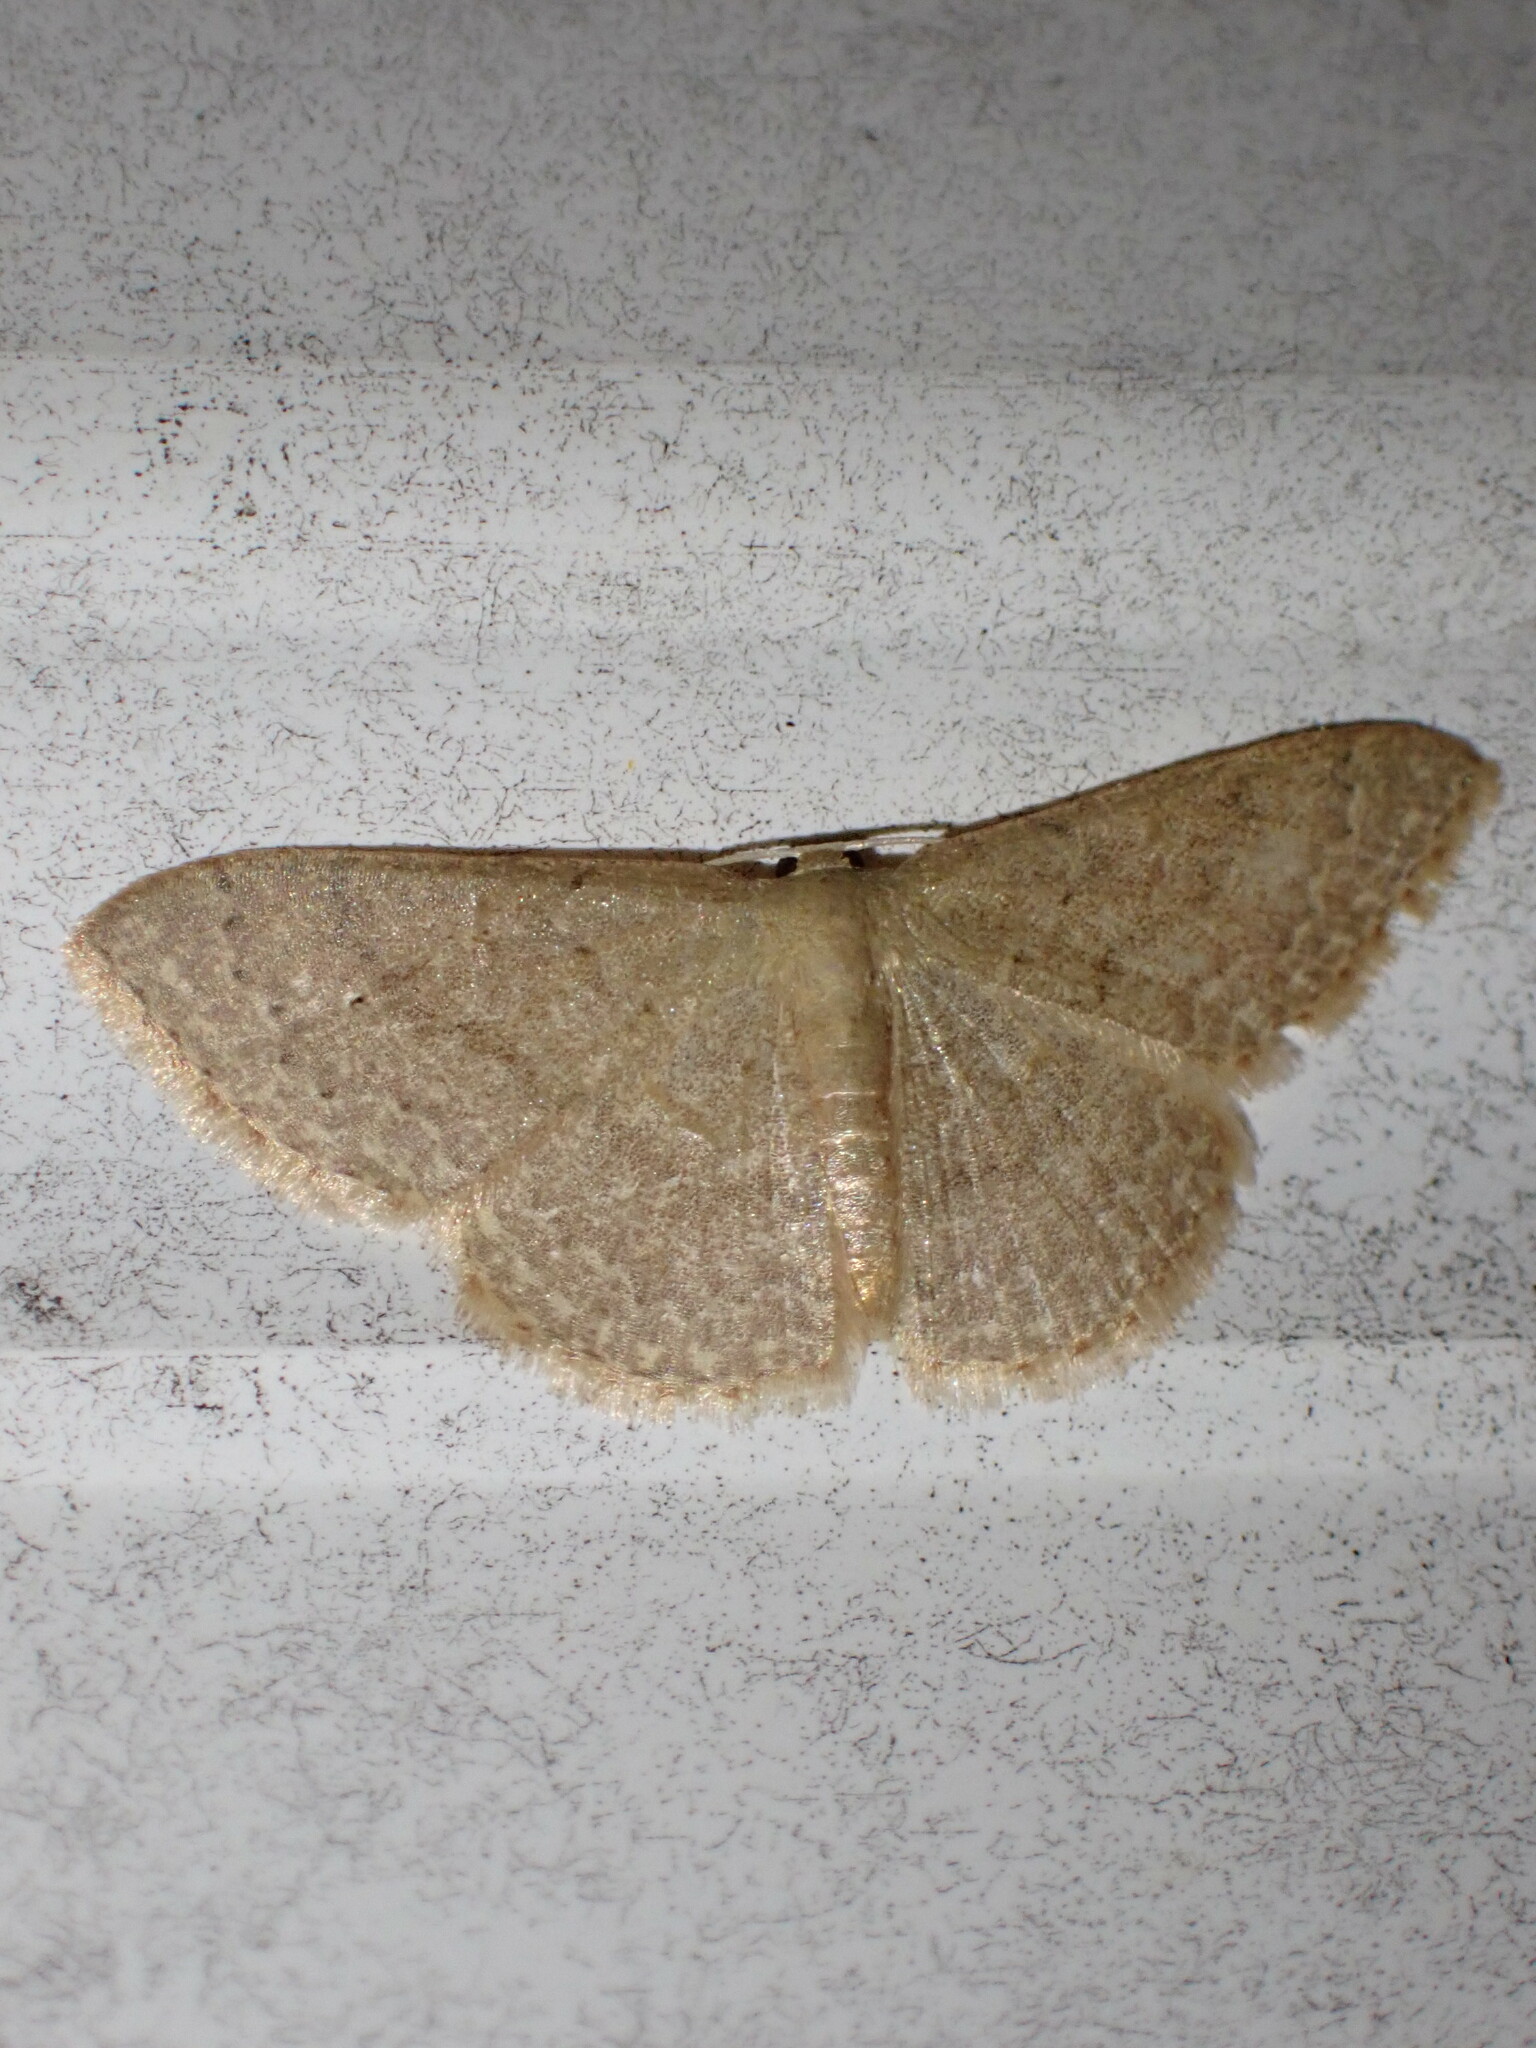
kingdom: Animalia
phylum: Arthropoda
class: Insecta
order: Lepidoptera
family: Geometridae
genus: Pleuroprucha
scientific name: Pleuroprucha insulsaria
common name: Common tan wave
